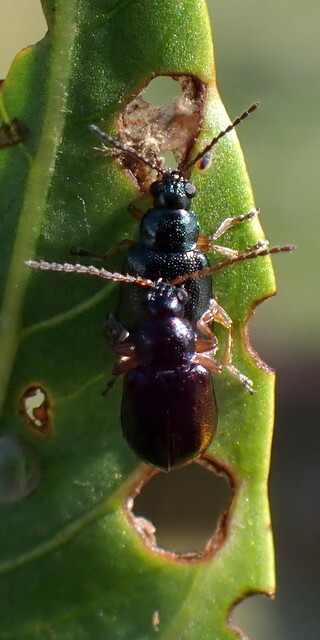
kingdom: Animalia
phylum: Arthropoda
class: Insecta
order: Coleoptera
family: Chrysomelidae
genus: Lysathia
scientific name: Lysathia ludoviciana
